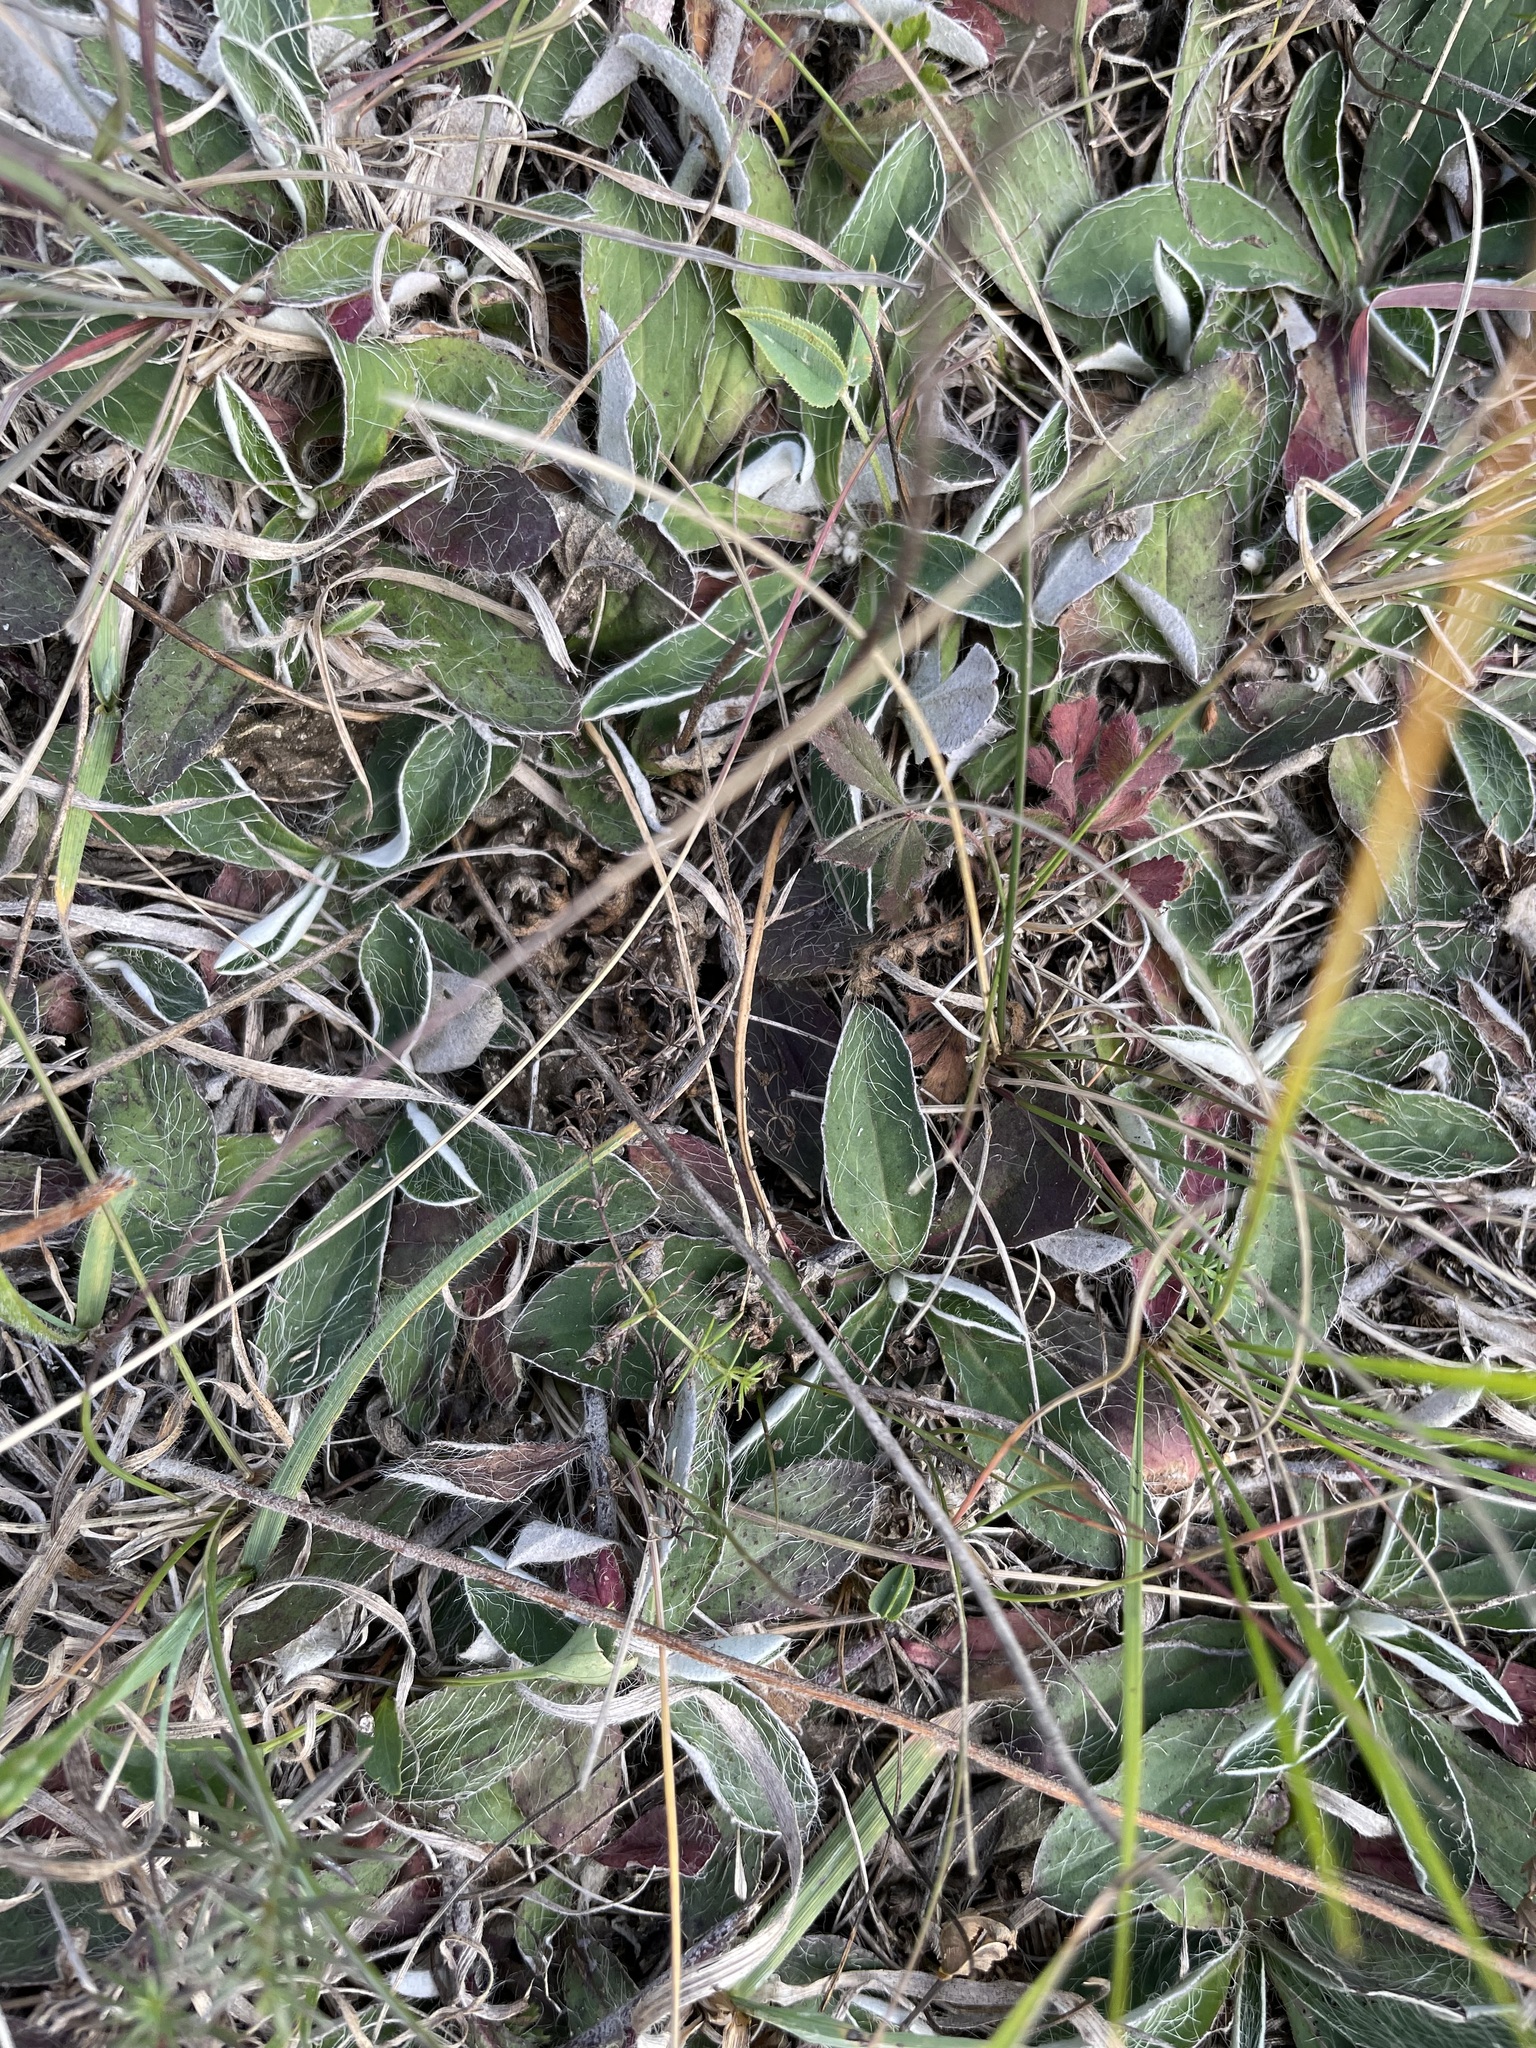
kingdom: Plantae
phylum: Tracheophyta
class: Magnoliopsida
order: Asterales
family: Asteraceae
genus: Pilosella
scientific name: Pilosella officinarum
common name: Mouse-ear hawkweed
